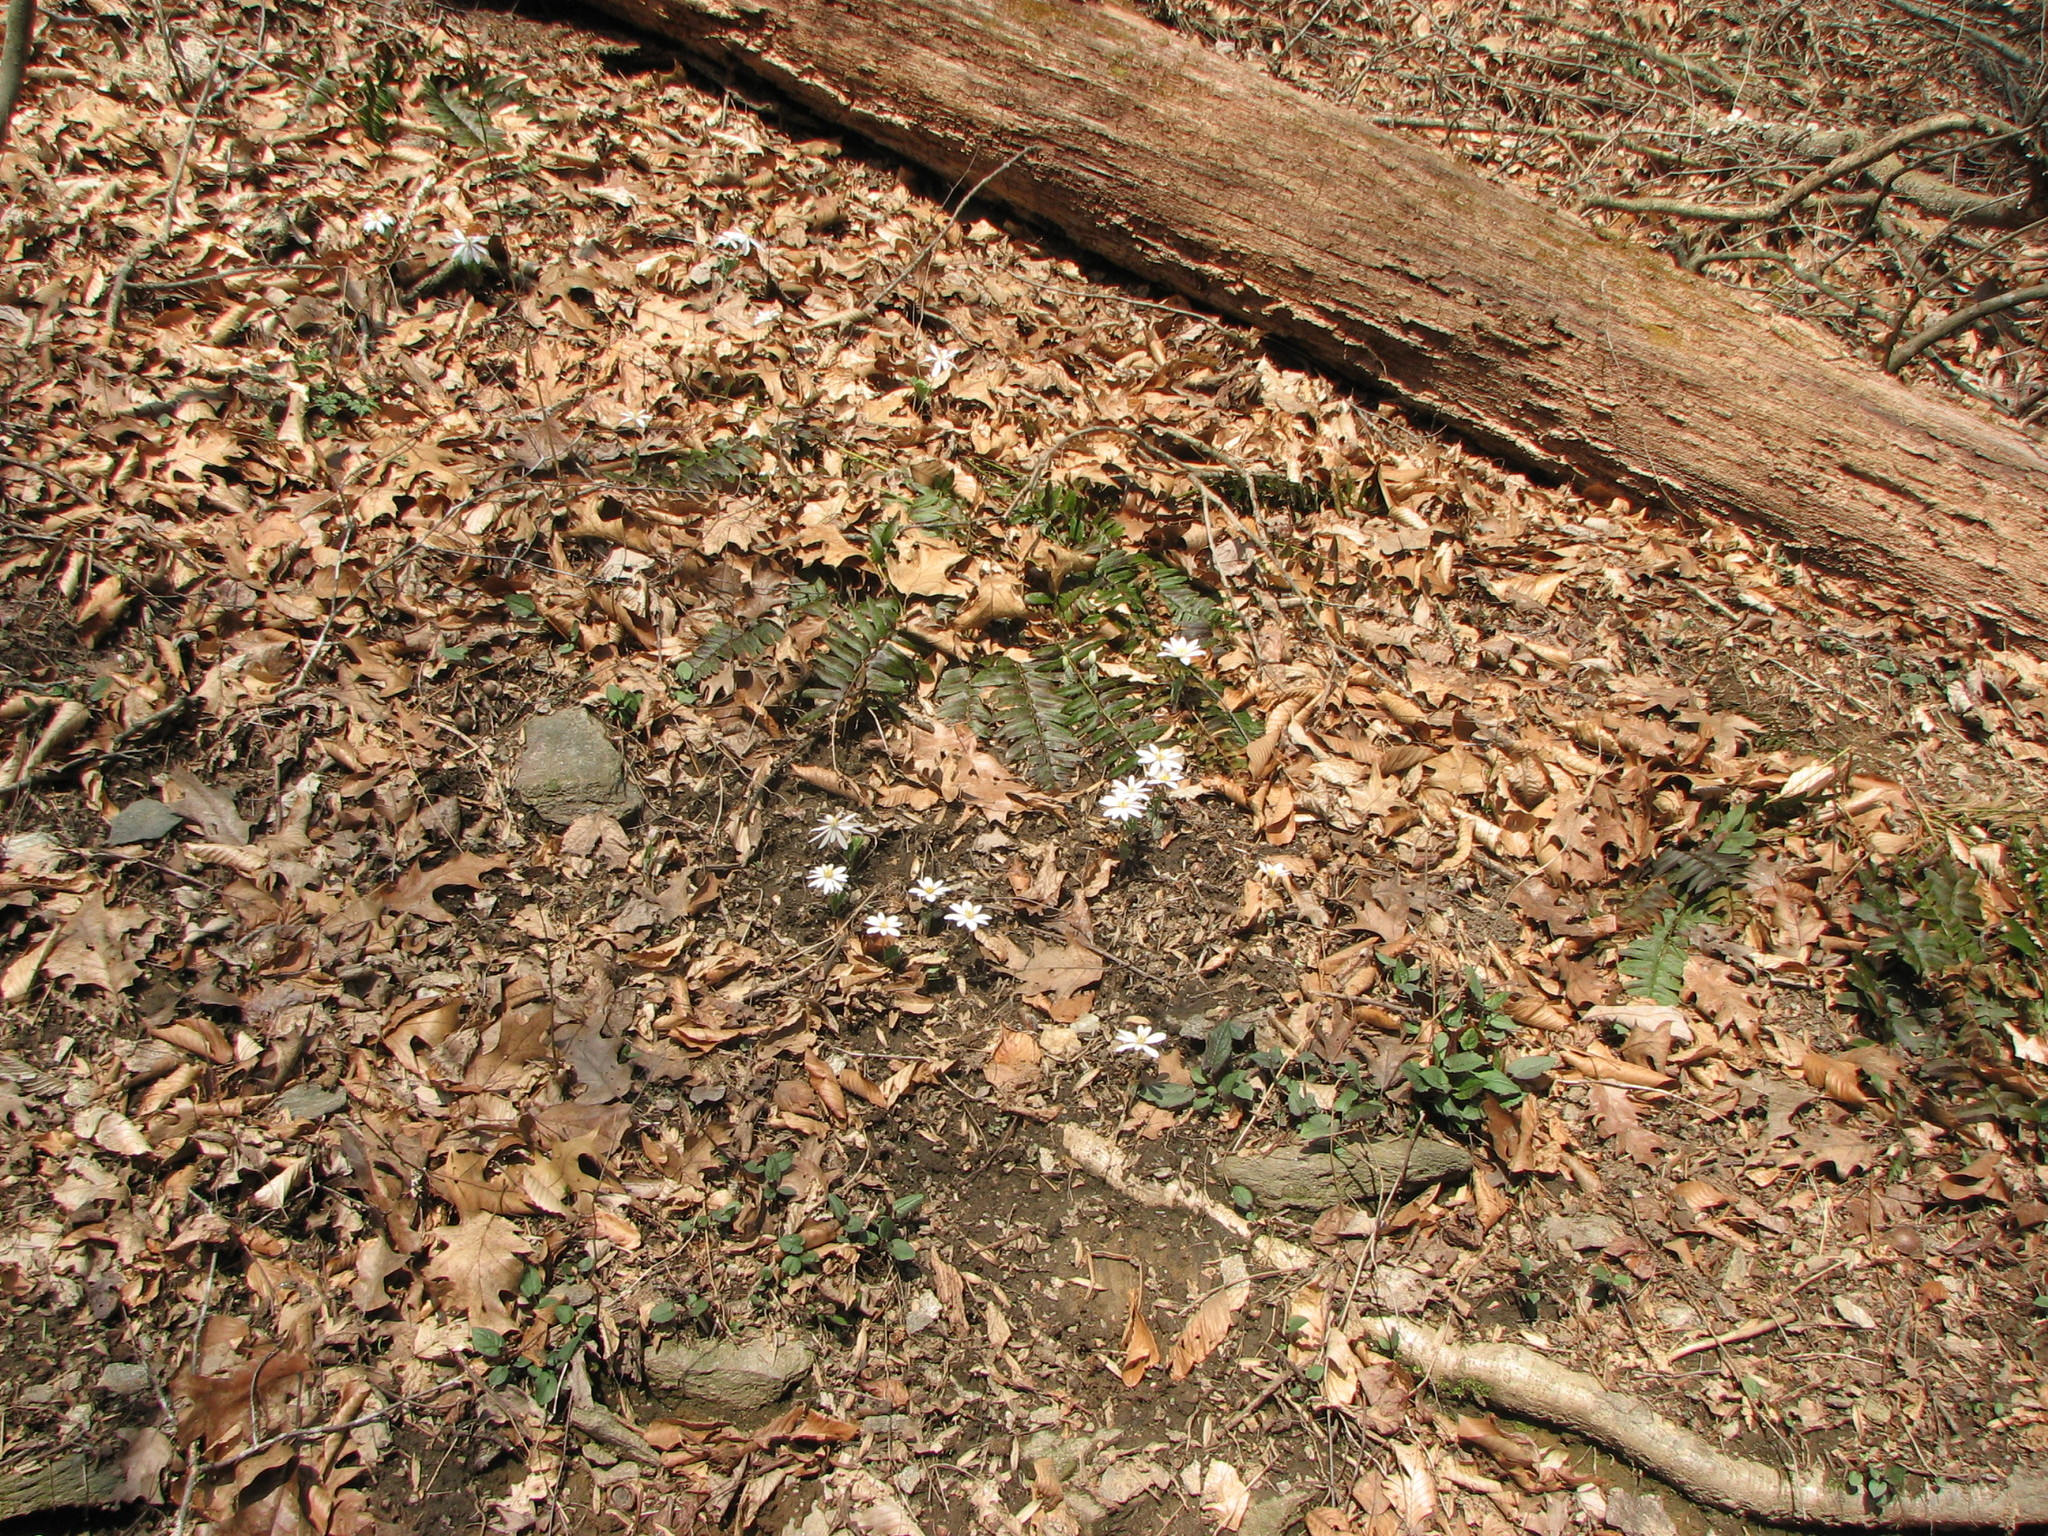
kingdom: Plantae
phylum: Tracheophyta
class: Magnoliopsida
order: Ranunculales
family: Papaveraceae
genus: Sanguinaria
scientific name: Sanguinaria canadensis
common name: Bloodroot
